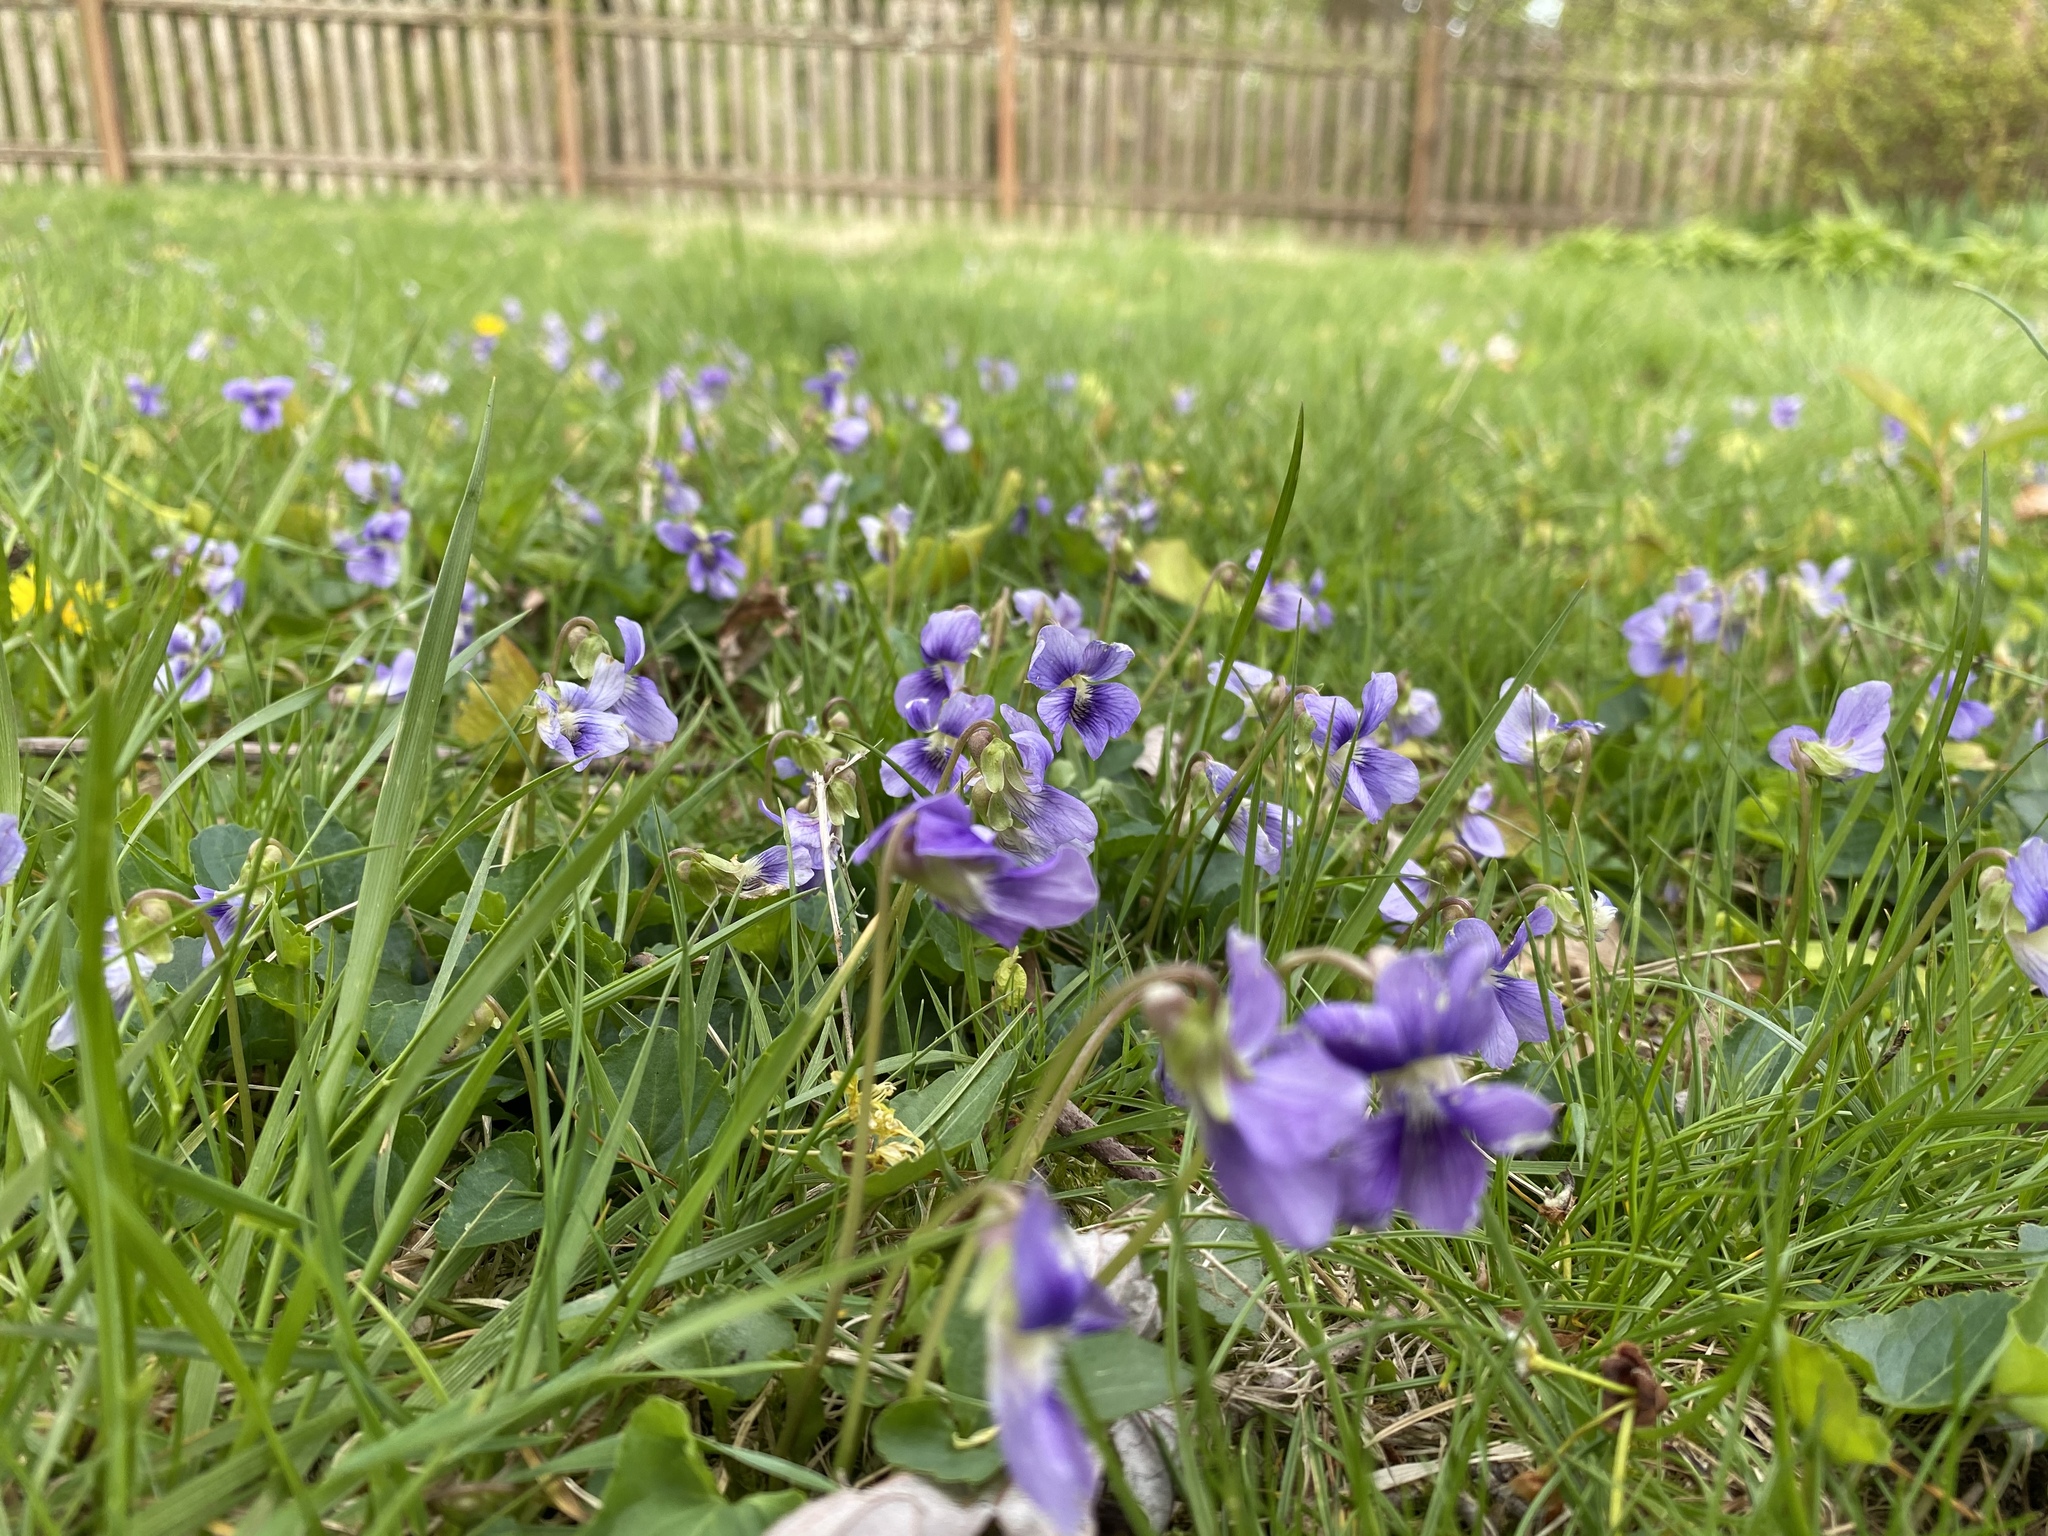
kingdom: Plantae
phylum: Tracheophyta
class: Magnoliopsida
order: Malpighiales
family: Violaceae
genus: Viola
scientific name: Viola sororia
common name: Dooryard violet
